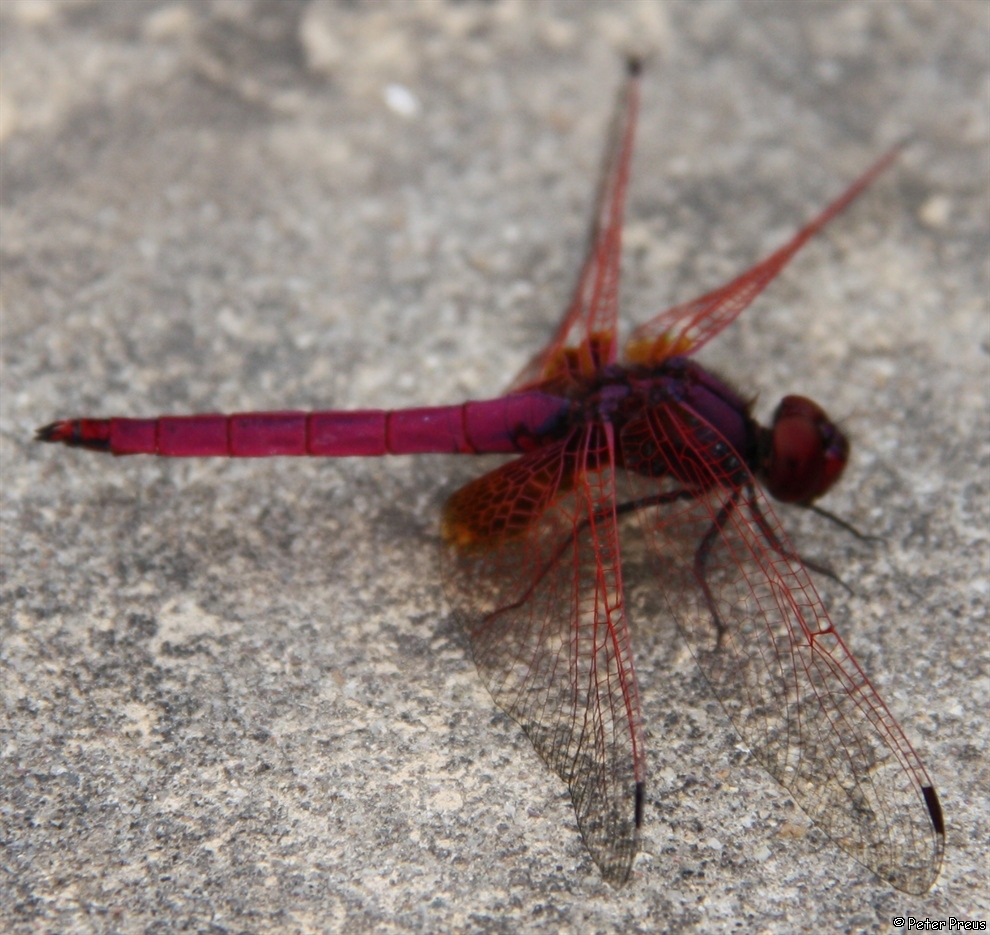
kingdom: Animalia
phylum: Arthropoda
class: Insecta
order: Odonata
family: Libellulidae
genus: Trithemis
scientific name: Trithemis aurora
